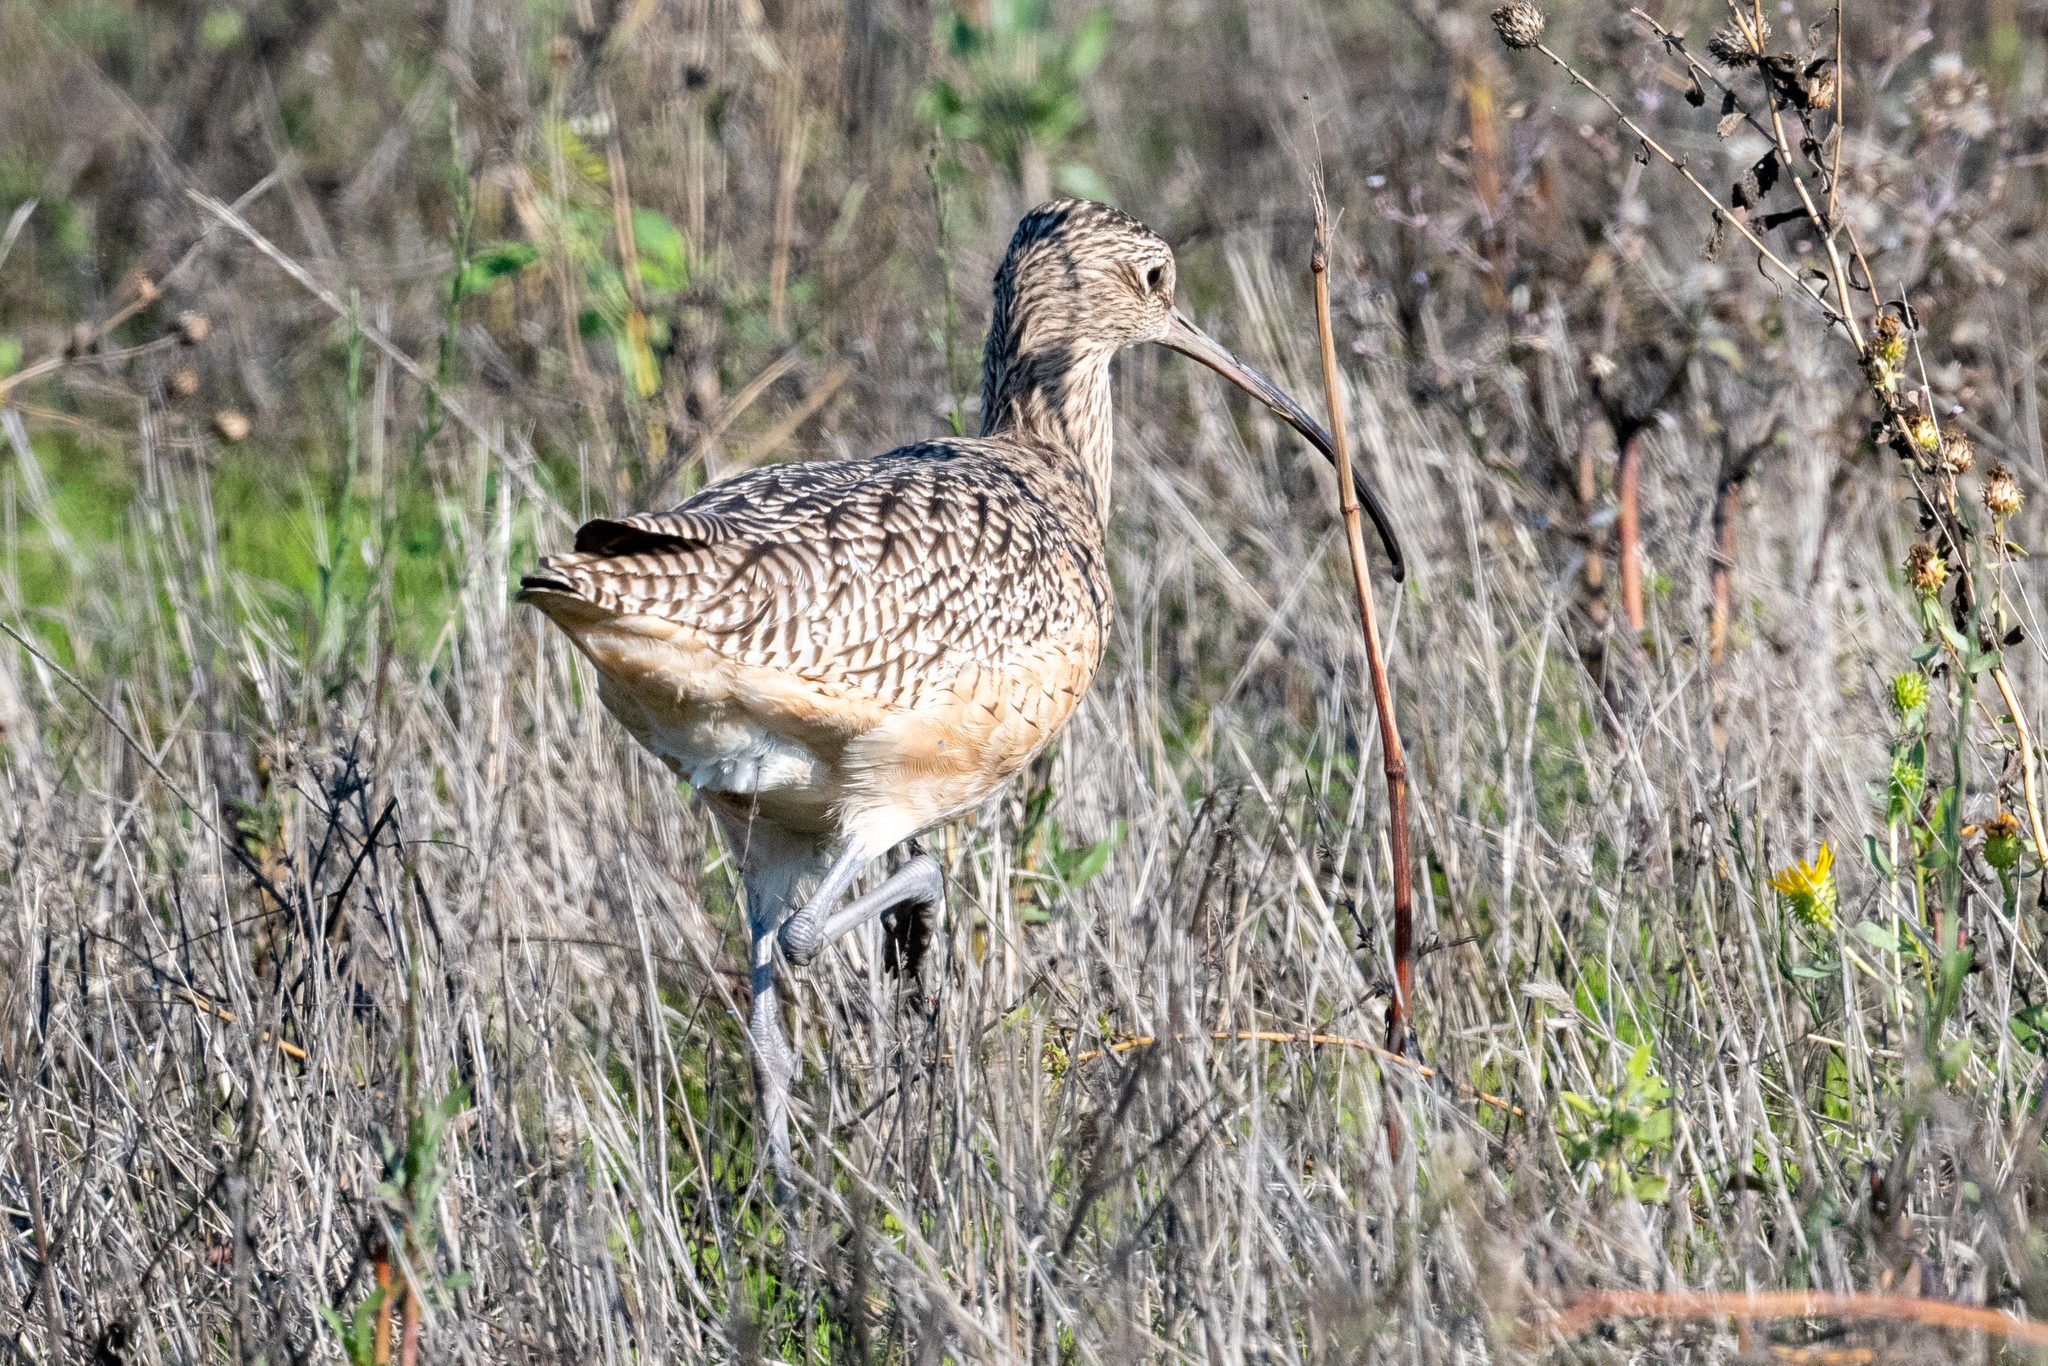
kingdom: Animalia
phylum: Chordata
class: Aves
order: Charadriiformes
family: Scolopacidae
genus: Numenius
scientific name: Numenius americanus
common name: Long-billed curlew
